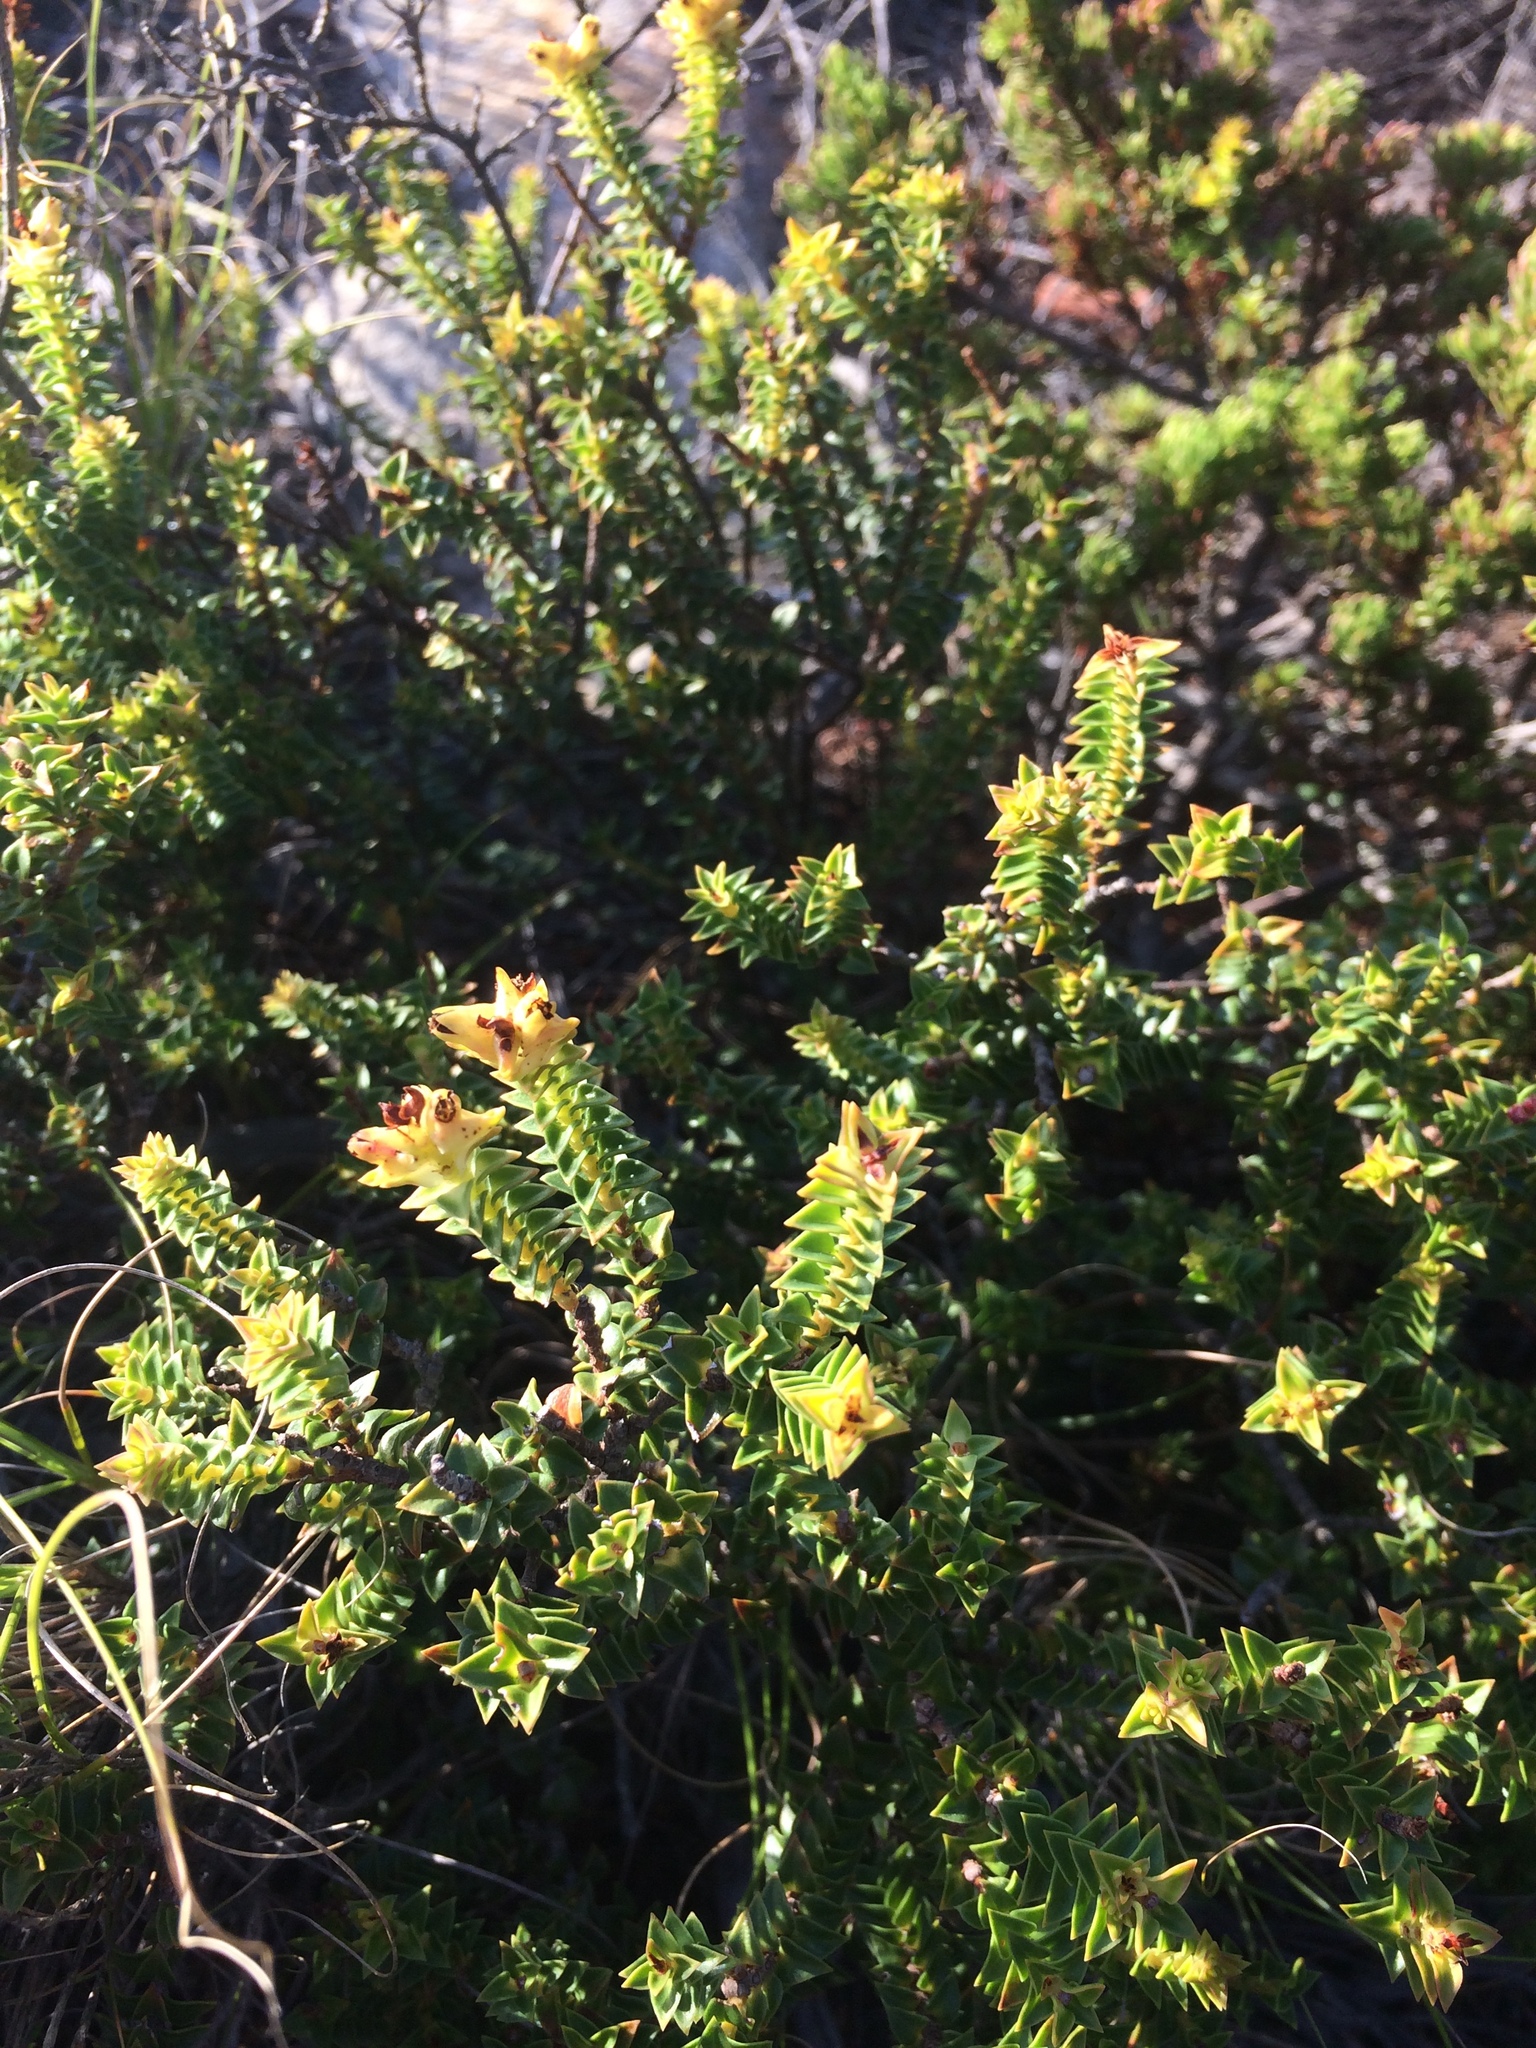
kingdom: Plantae
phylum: Tracheophyta
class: Magnoliopsida
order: Myrtales
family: Penaeaceae
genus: Penaea
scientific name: Penaea mucronata
